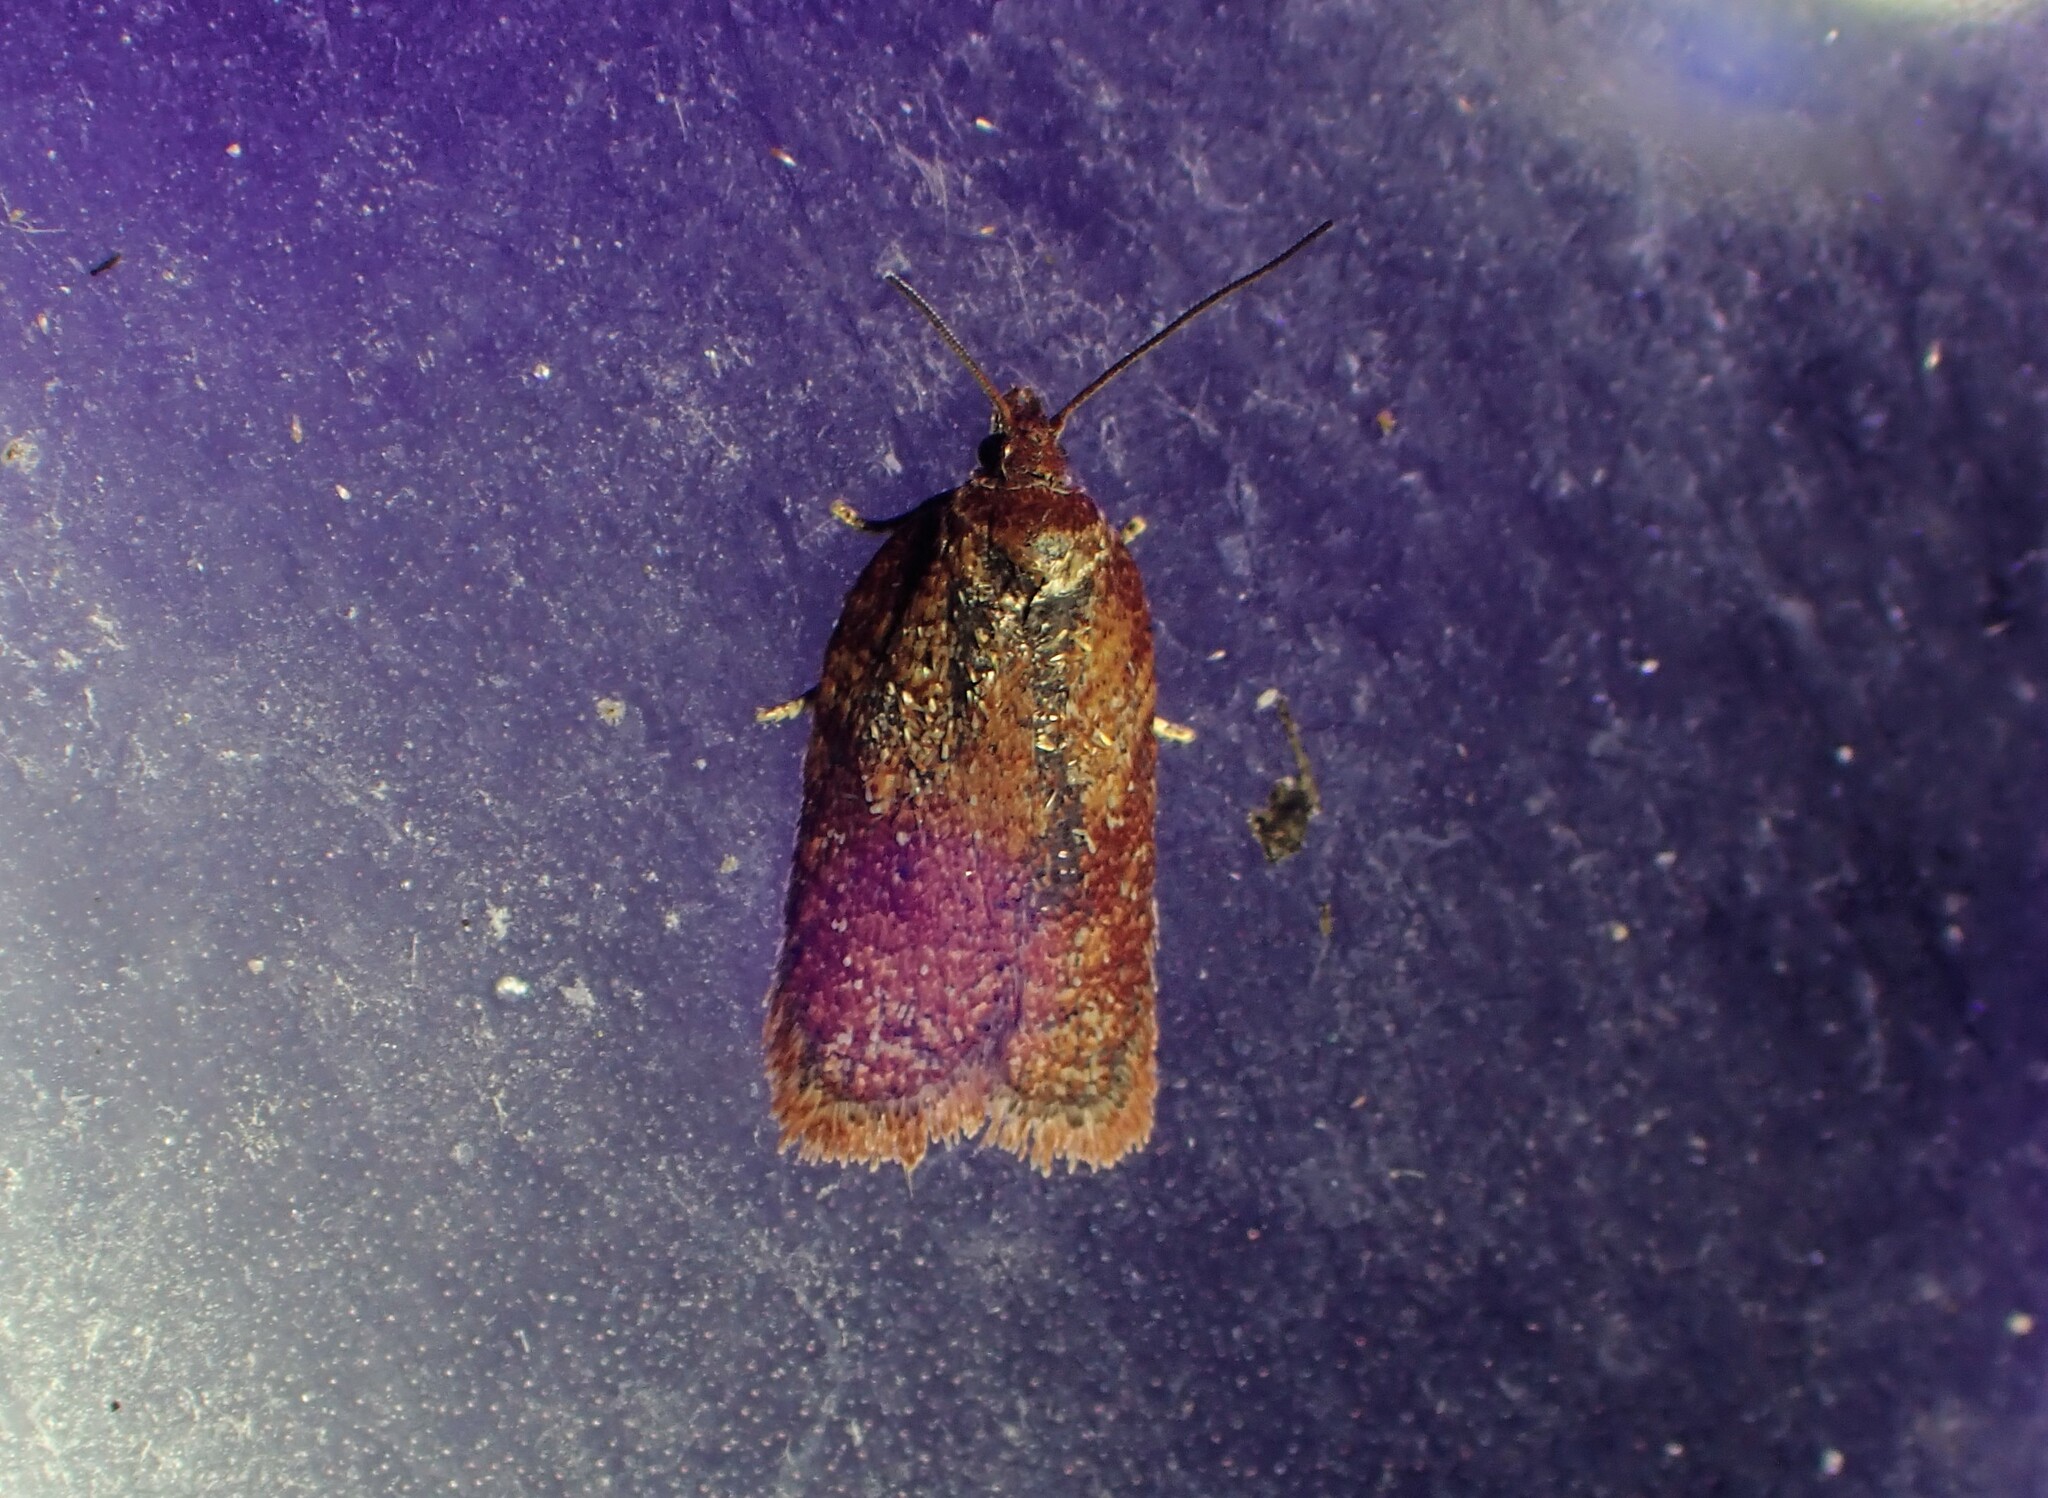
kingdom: Animalia
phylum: Arthropoda
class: Insecta
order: Lepidoptera
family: Tortricidae
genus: Acleris
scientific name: Acleris oxycoccana
